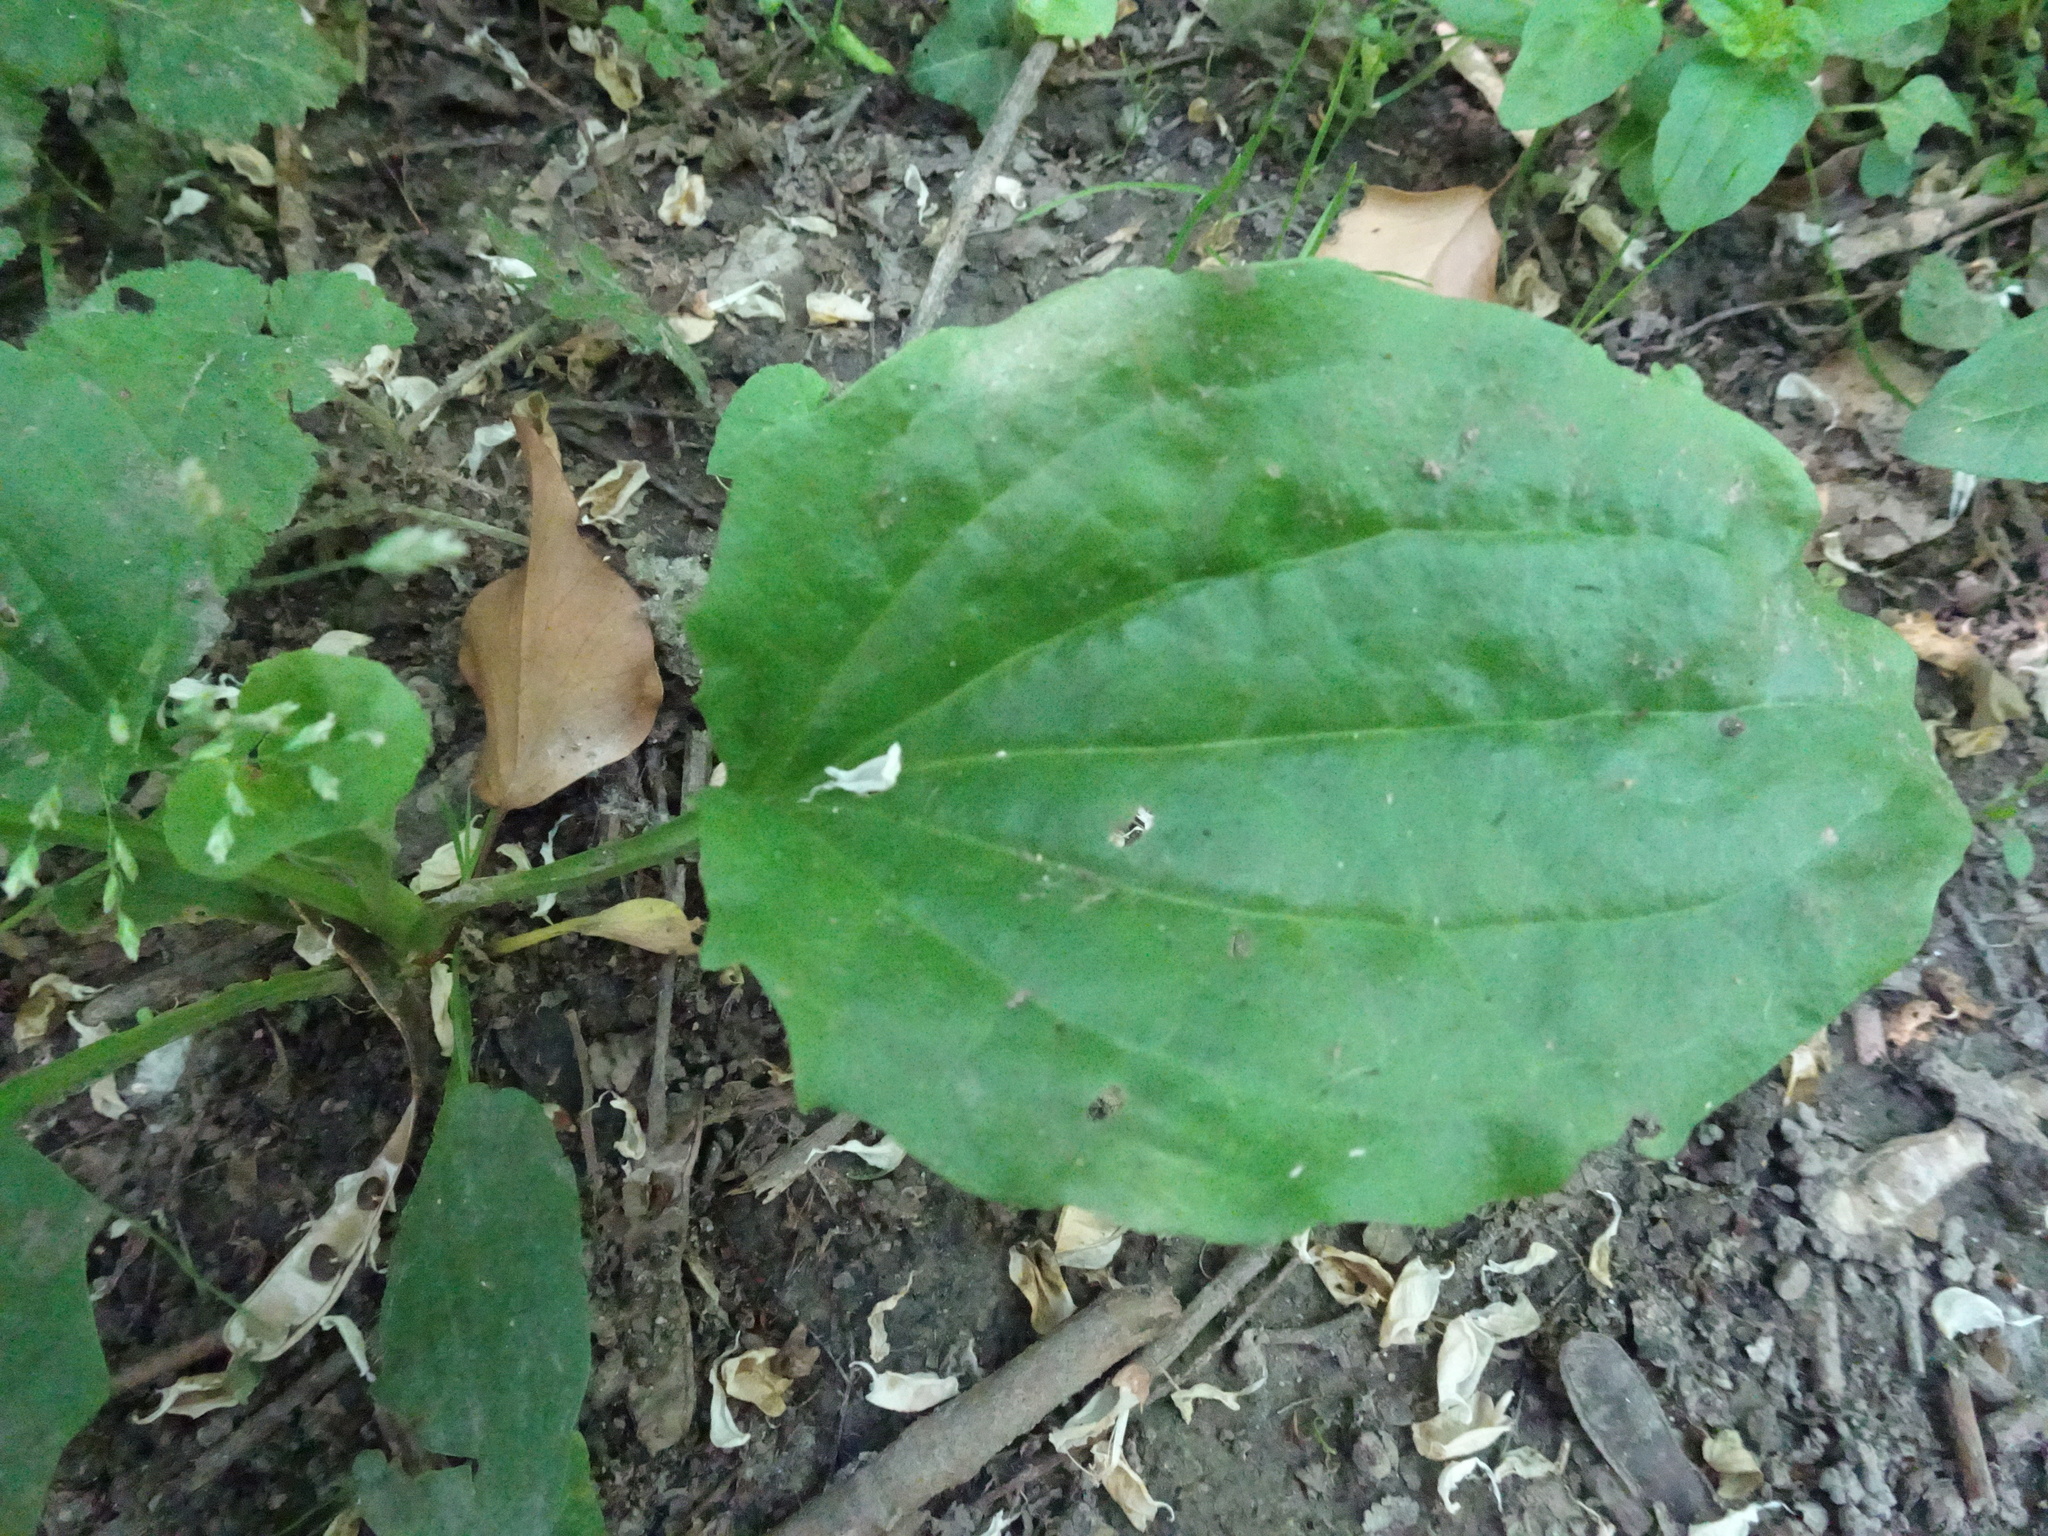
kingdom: Plantae
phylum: Tracheophyta
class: Magnoliopsida
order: Lamiales
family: Plantaginaceae
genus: Plantago
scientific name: Plantago major
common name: Common plantain
